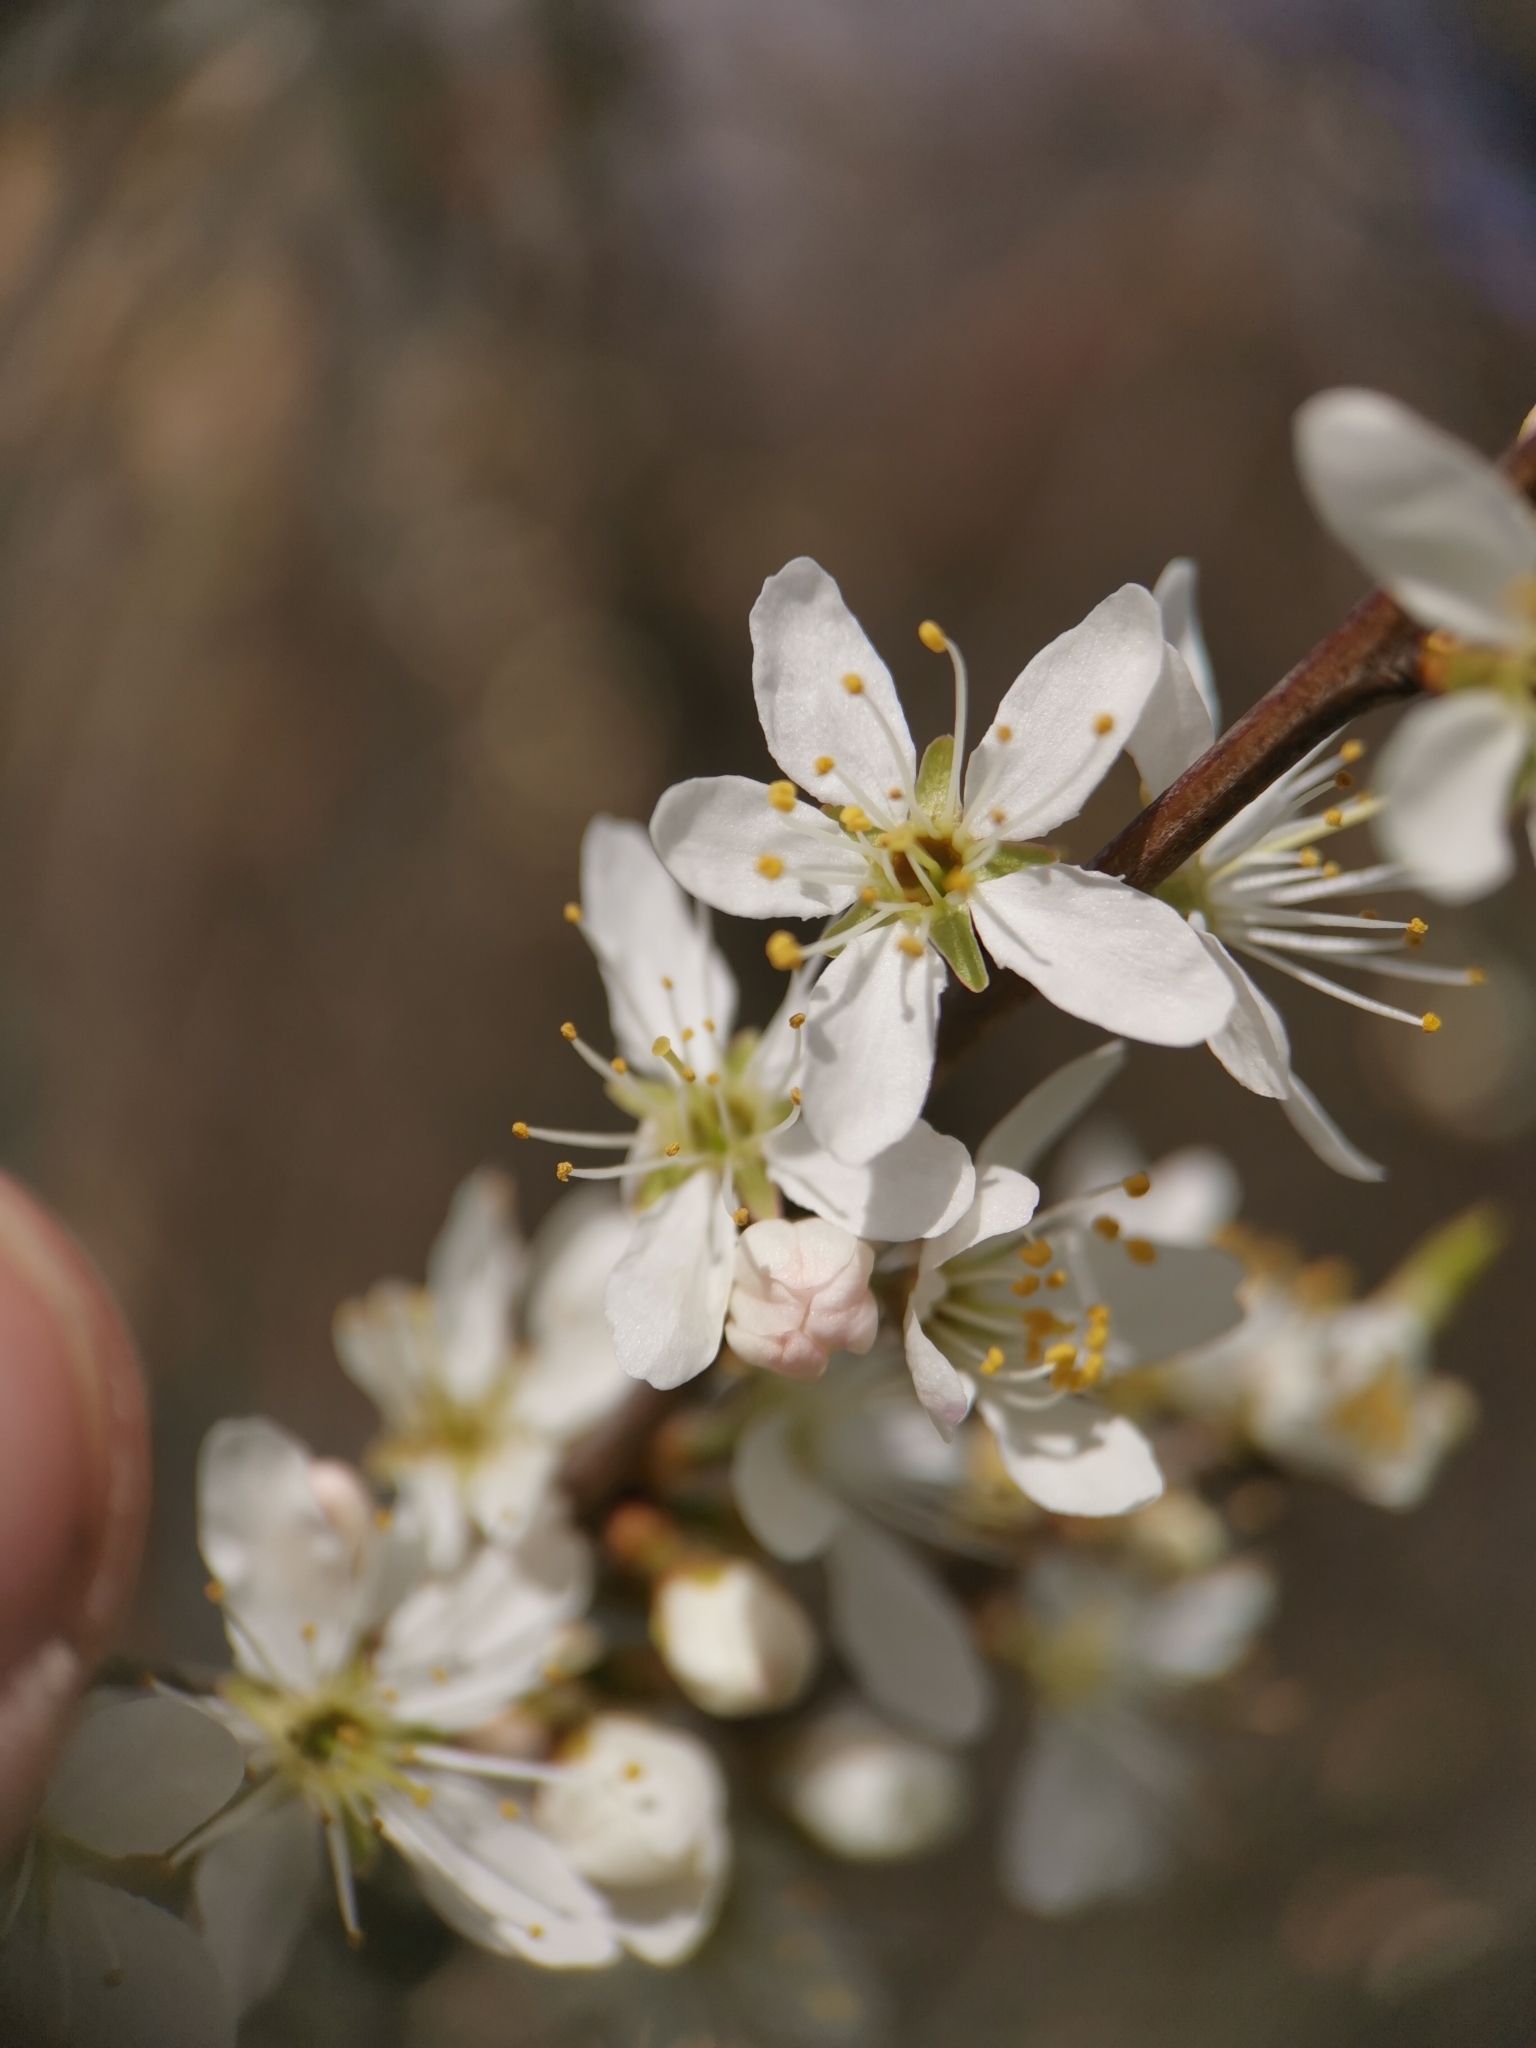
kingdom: Plantae
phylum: Tracheophyta
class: Magnoliopsida
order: Rosales
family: Rosaceae
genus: Prunus
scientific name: Prunus spinosa
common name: Blackthorn
